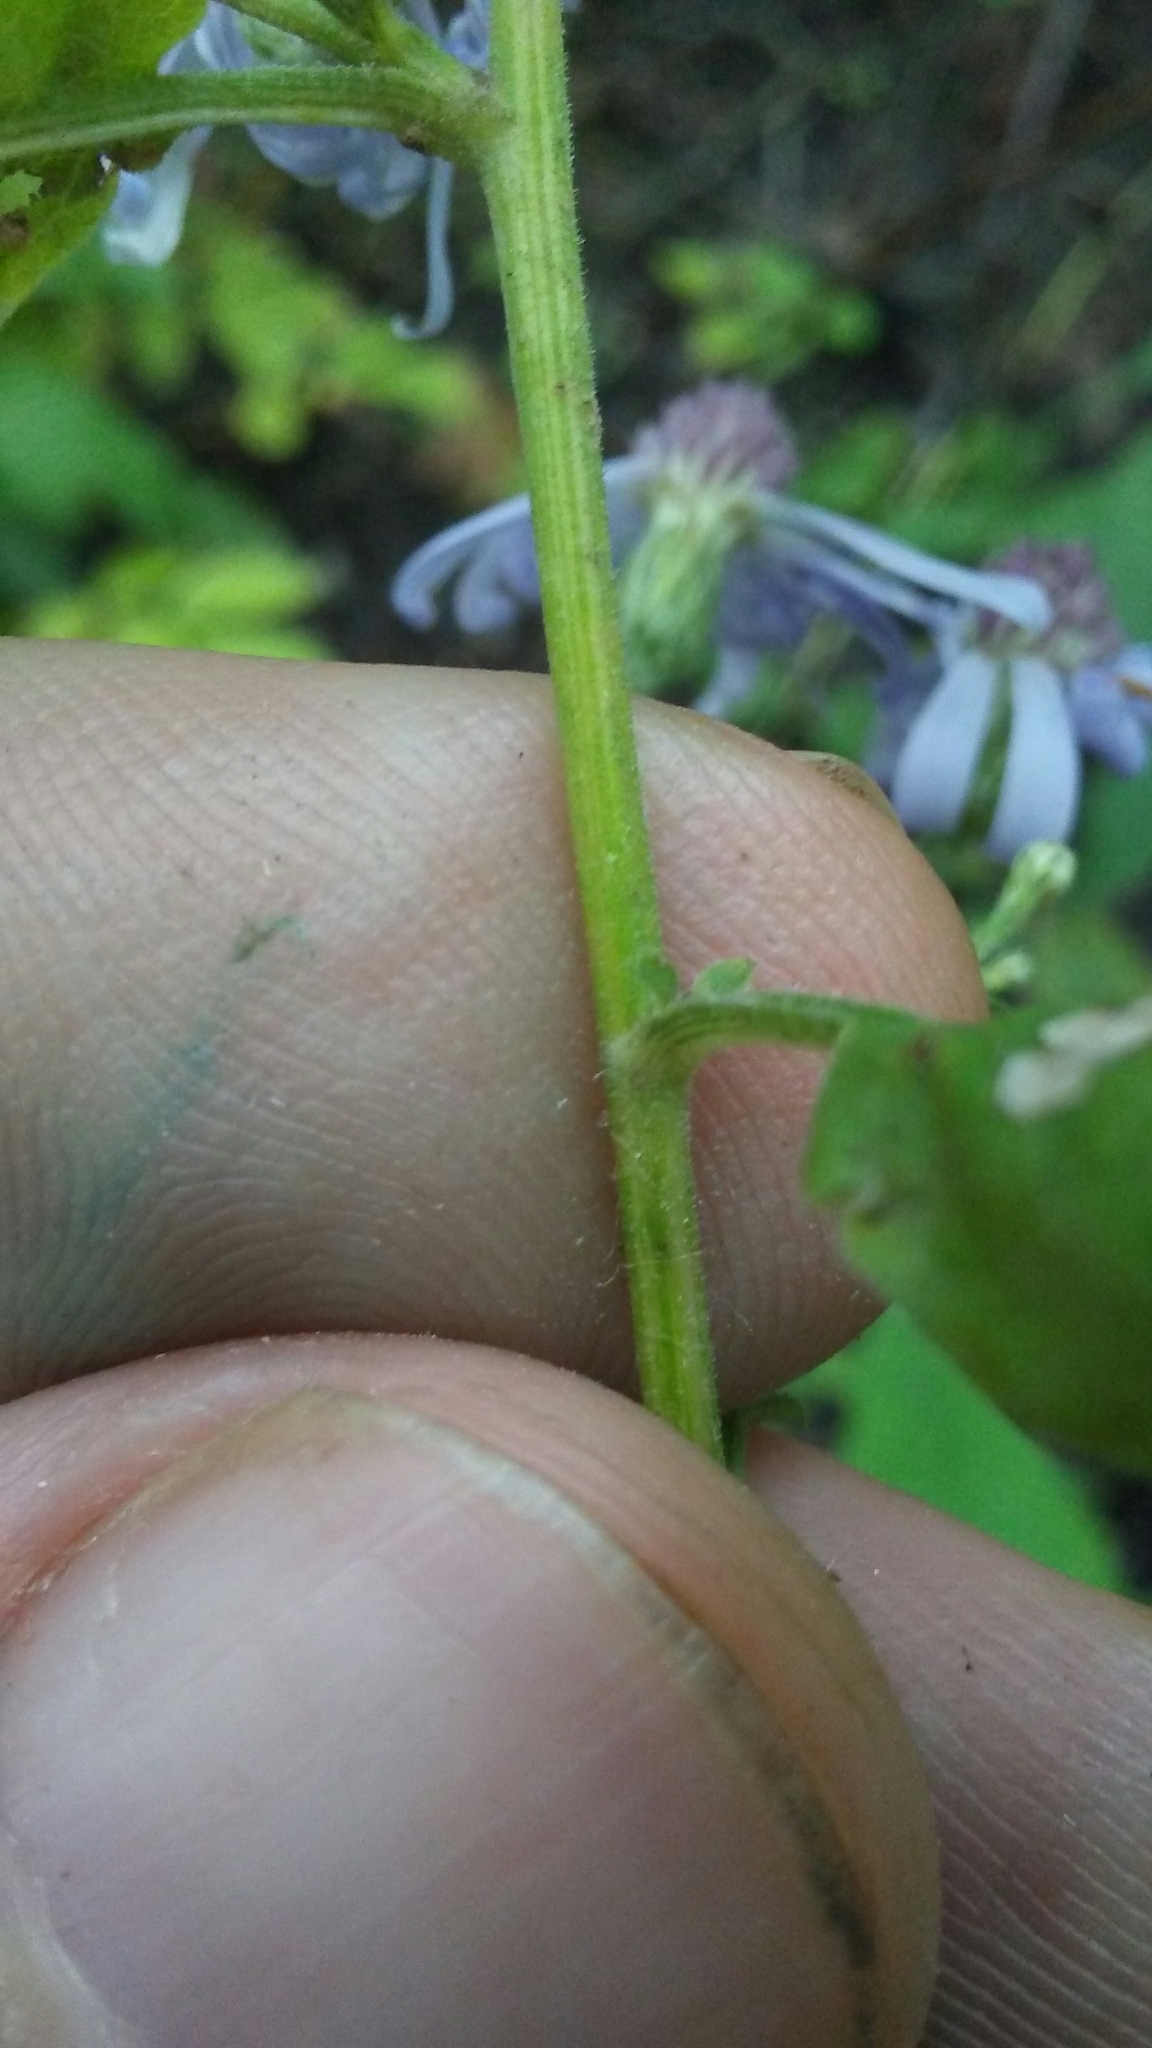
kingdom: Plantae
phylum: Tracheophyta
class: Magnoliopsida
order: Asterales
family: Asteraceae
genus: Symphyotrichum
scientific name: Symphyotrichum shortii
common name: Short's aster
